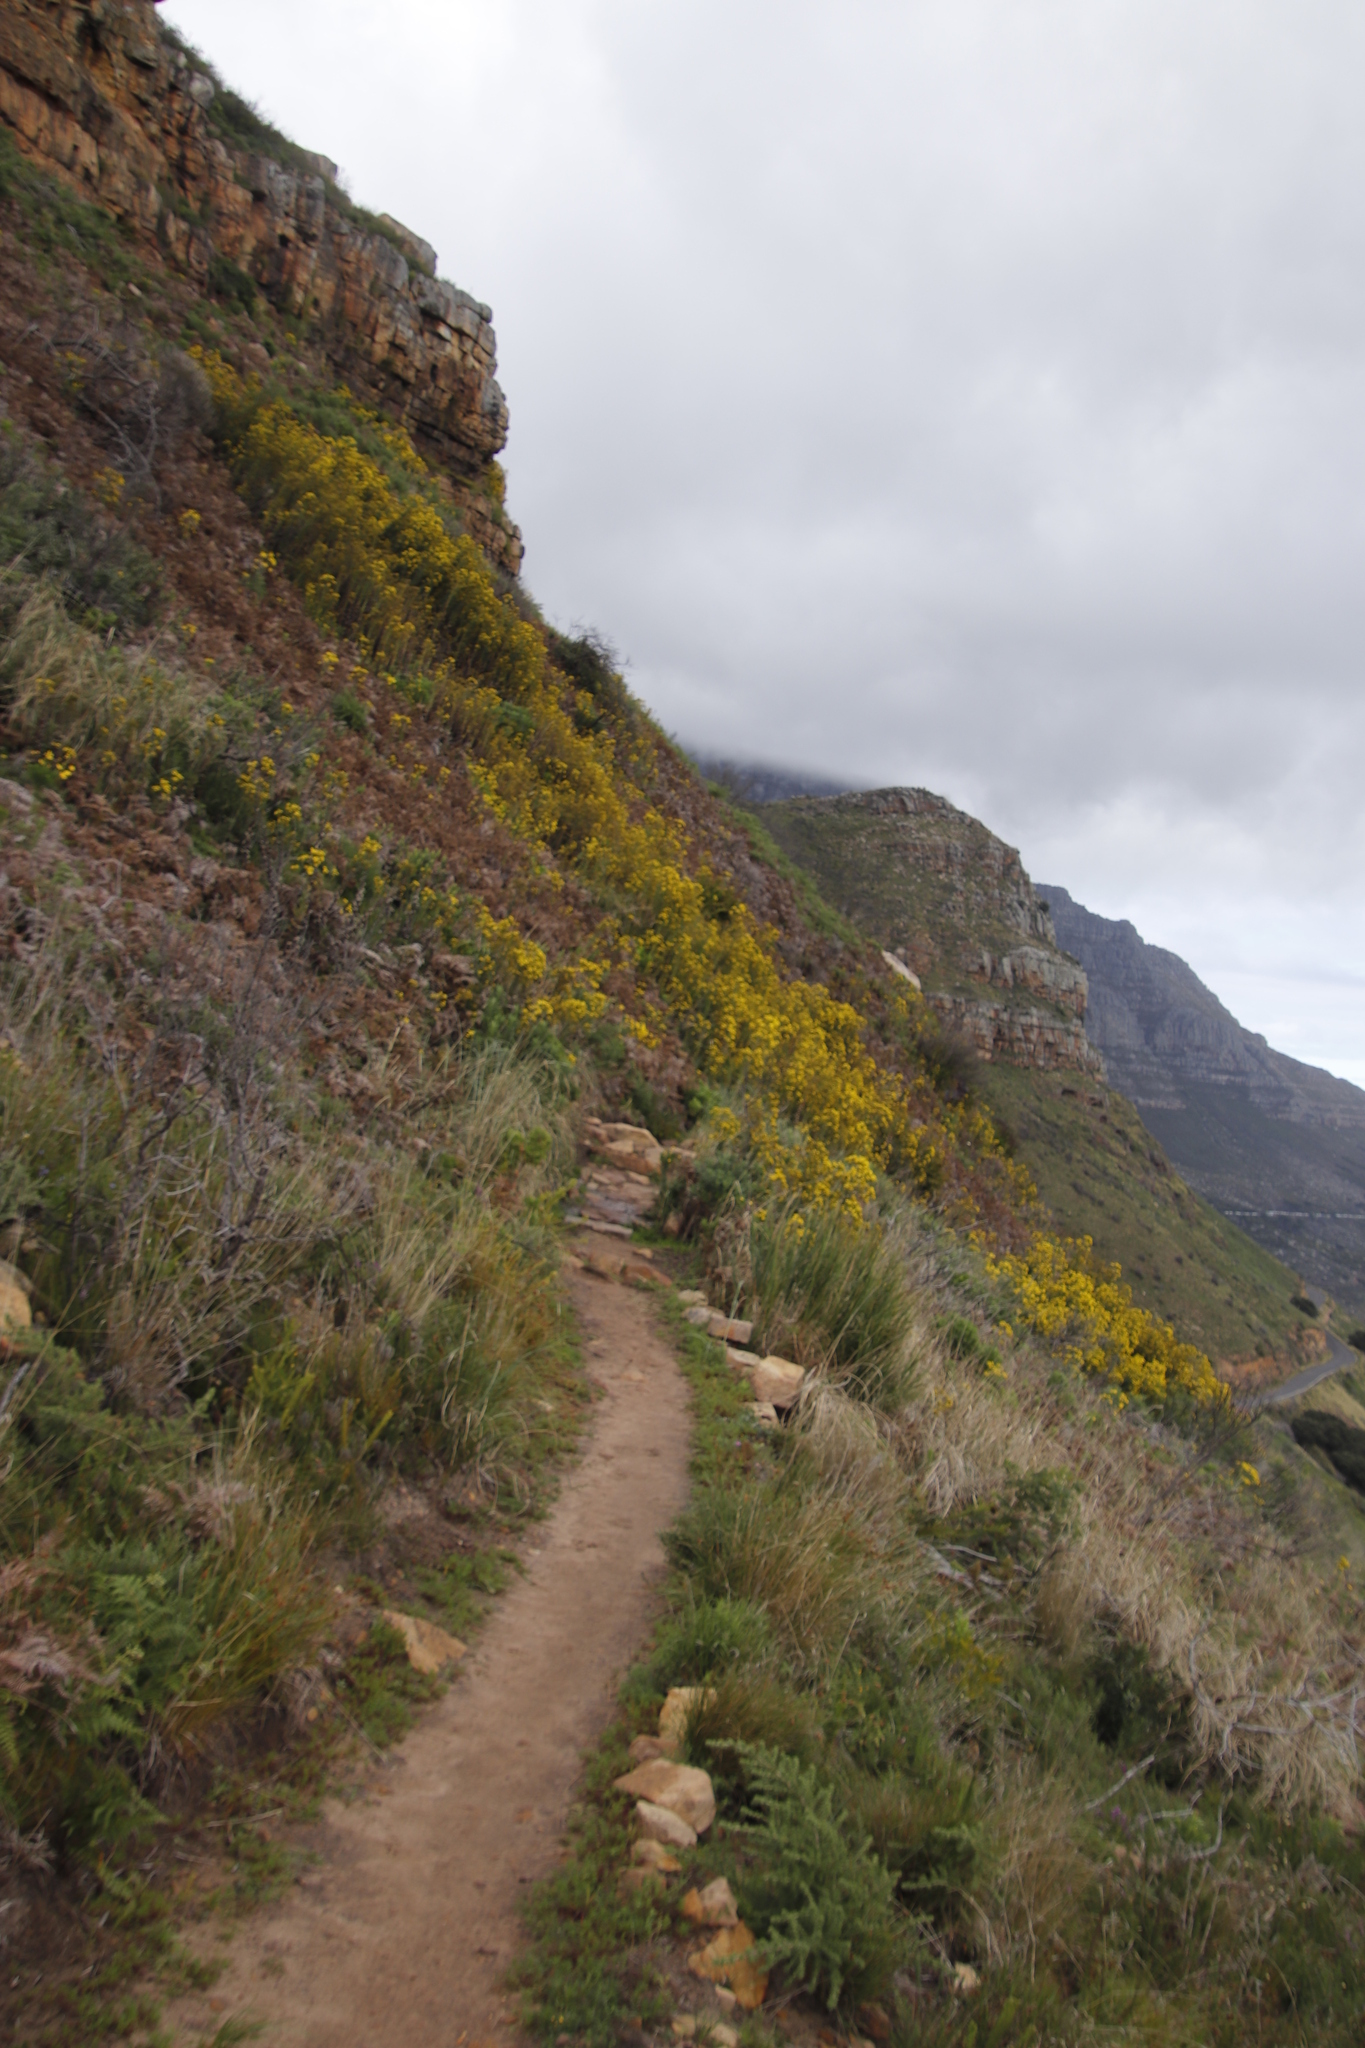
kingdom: Plantae
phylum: Tracheophyta
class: Magnoliopsida
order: Asterales
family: Asteraceae
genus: Senecio
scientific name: Senecio rigidus
